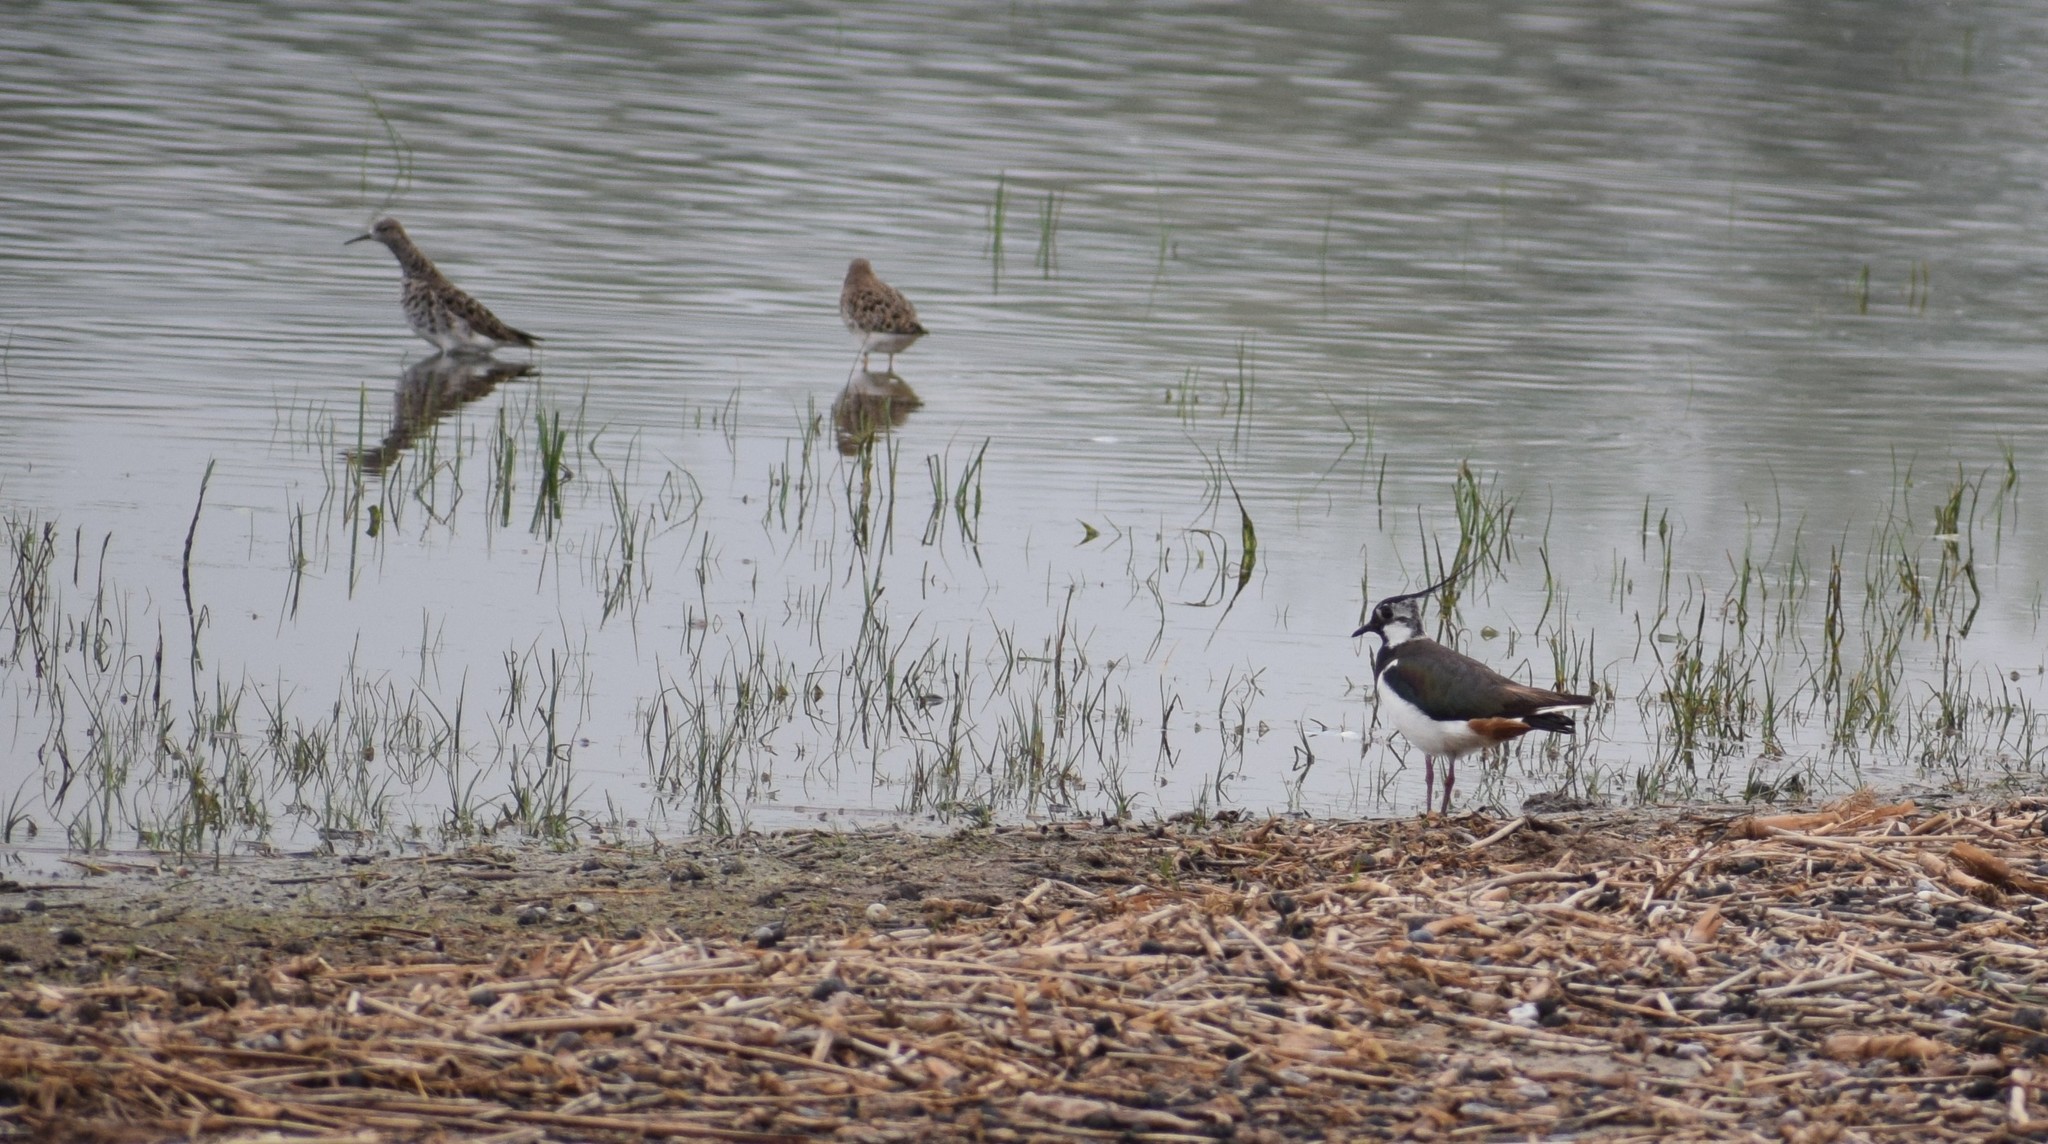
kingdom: Animalia
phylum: Chordata
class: Aves
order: Charadriiformes
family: Scolopacidae
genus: Calidris
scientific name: Calidris pugnax
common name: Ruff
